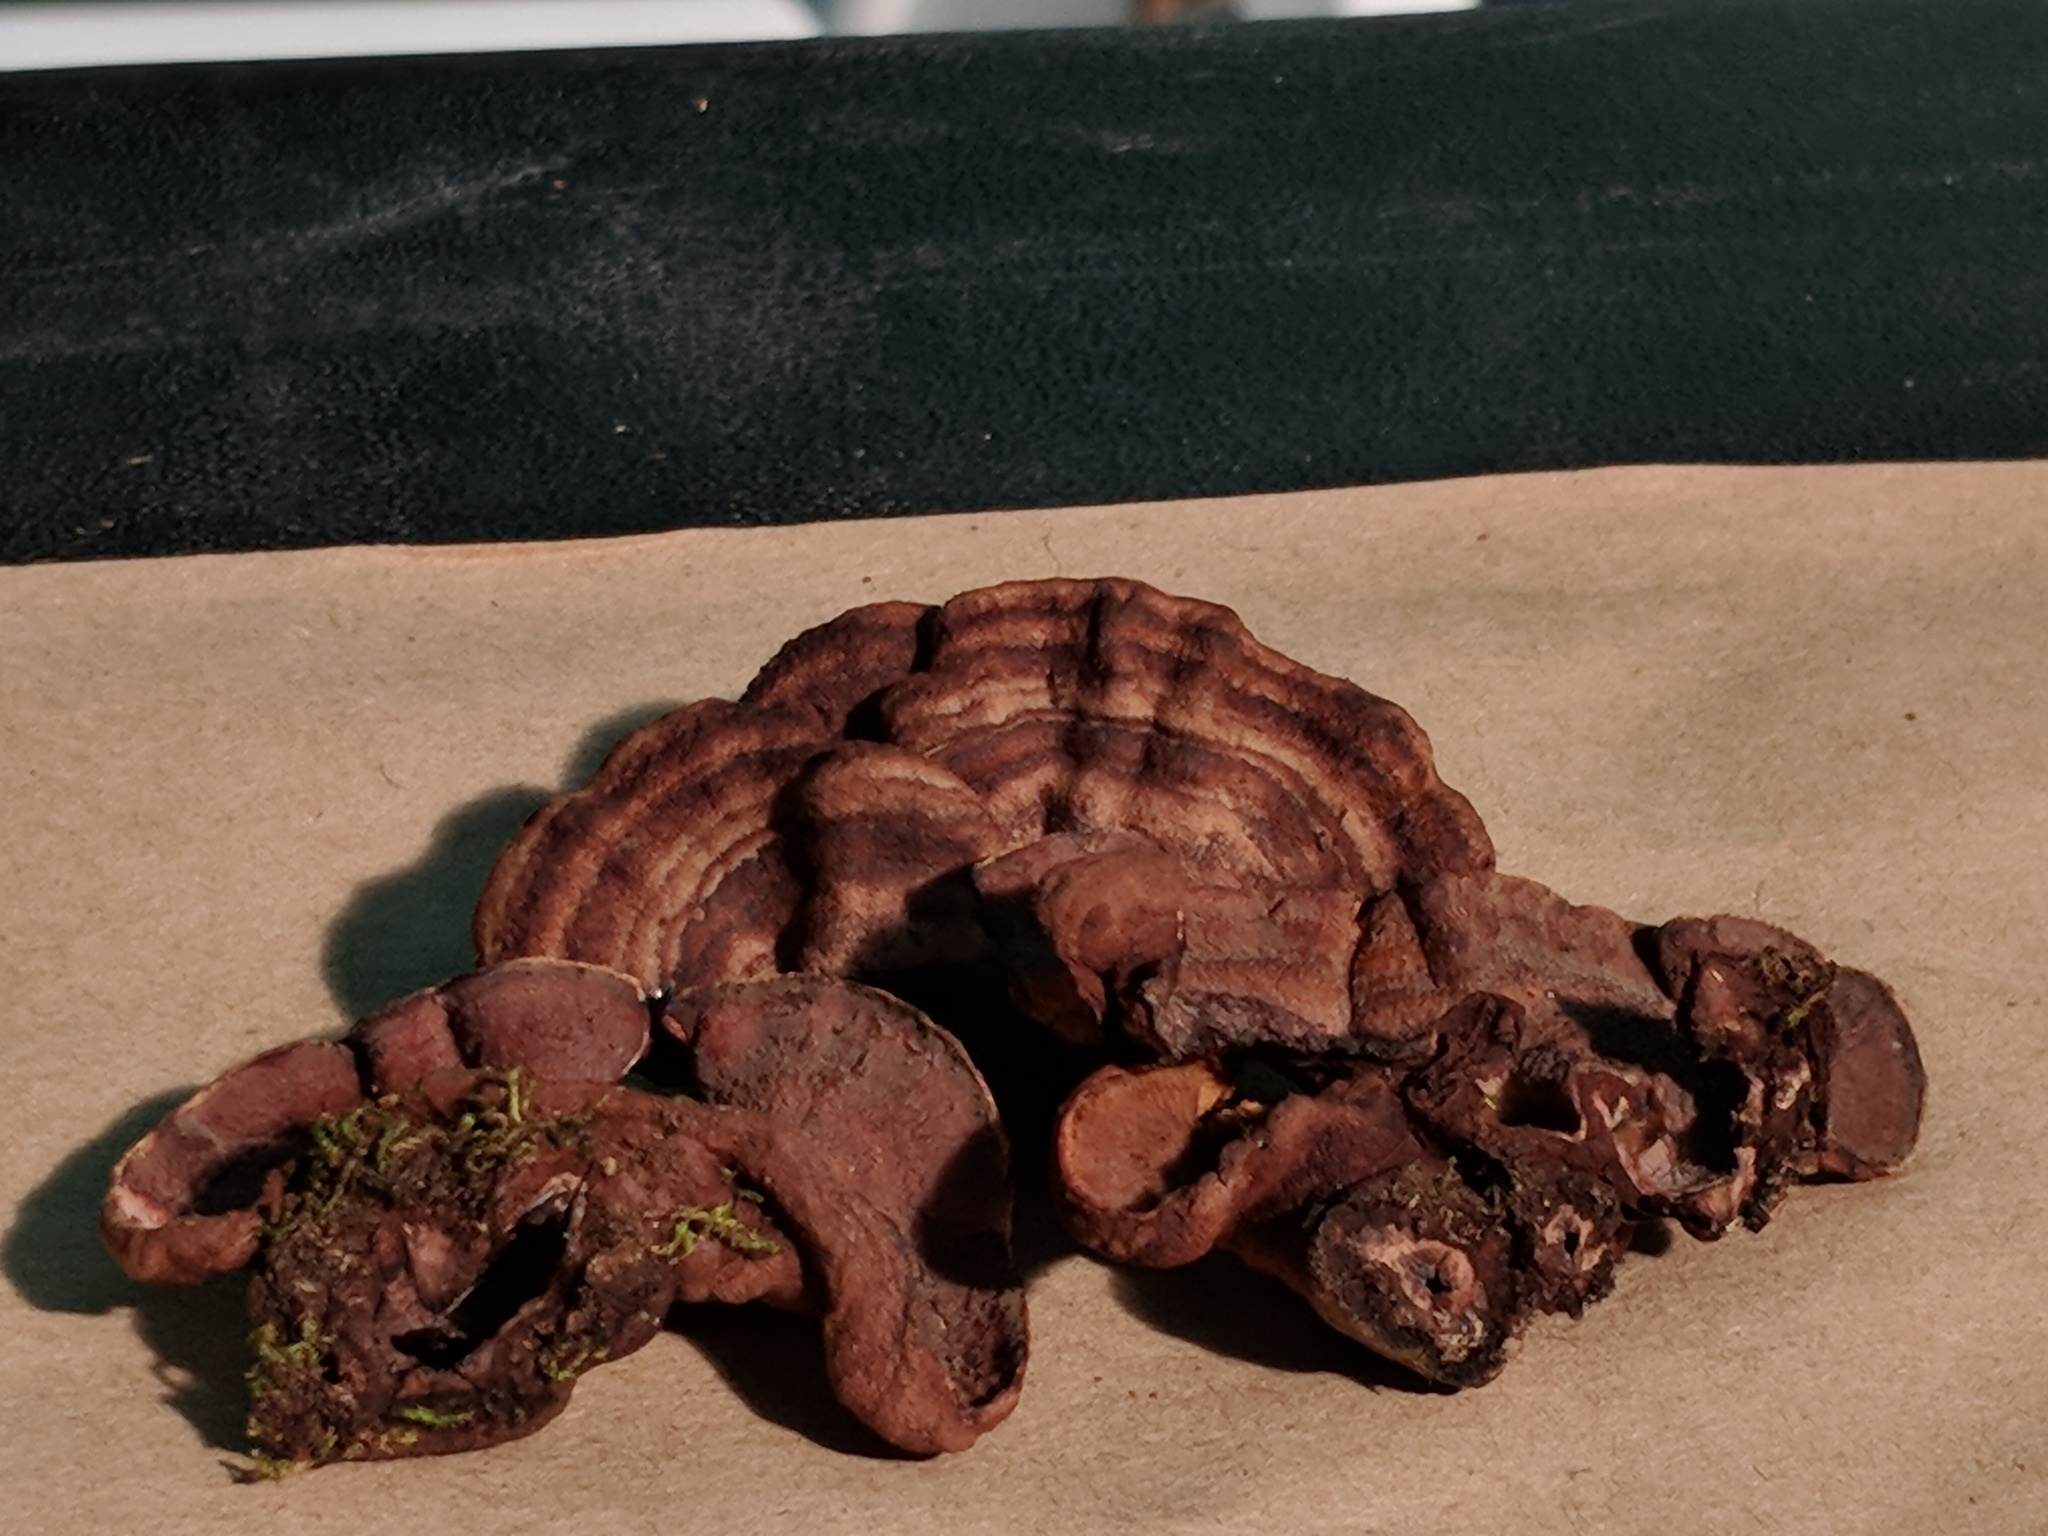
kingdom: Fungi
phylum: Basidiomycota
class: Agaricomycetes
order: Corticiales
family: Punctulariaceae
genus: Punctularia
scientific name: Punctularia strigosozonata
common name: White-rot fungus
